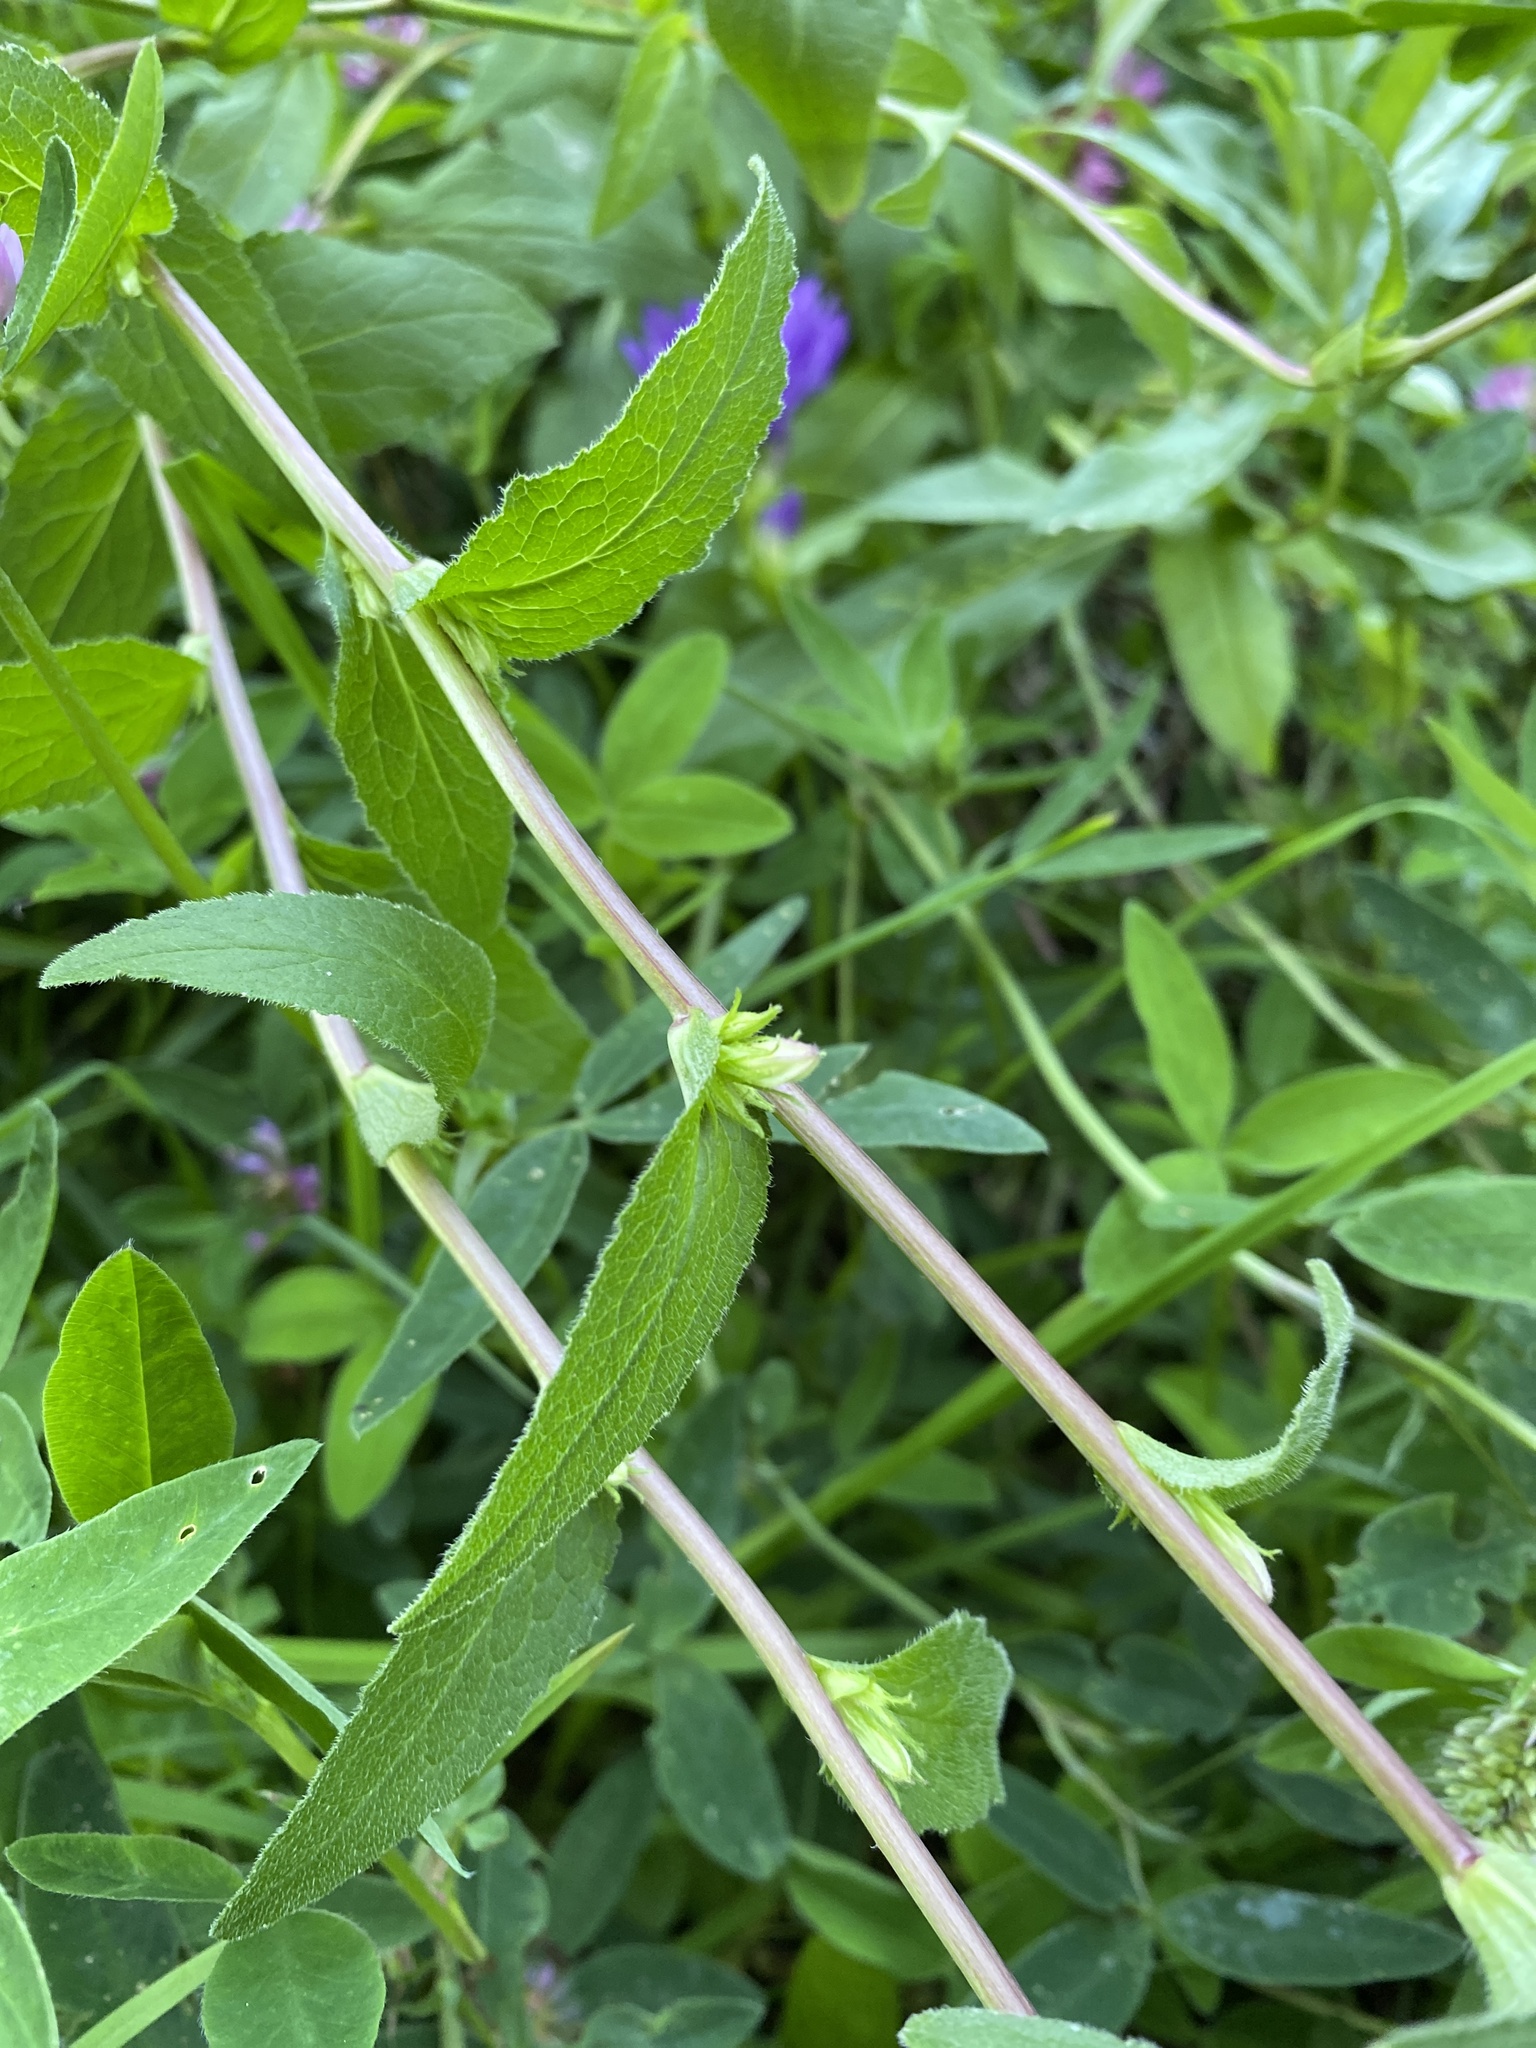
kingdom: Plantae
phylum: Tracheophyta
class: Magnoliopsida
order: Asterales
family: Campanulaceae
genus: Campanula
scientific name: Campanula glomerata
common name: Clustered bellflower
